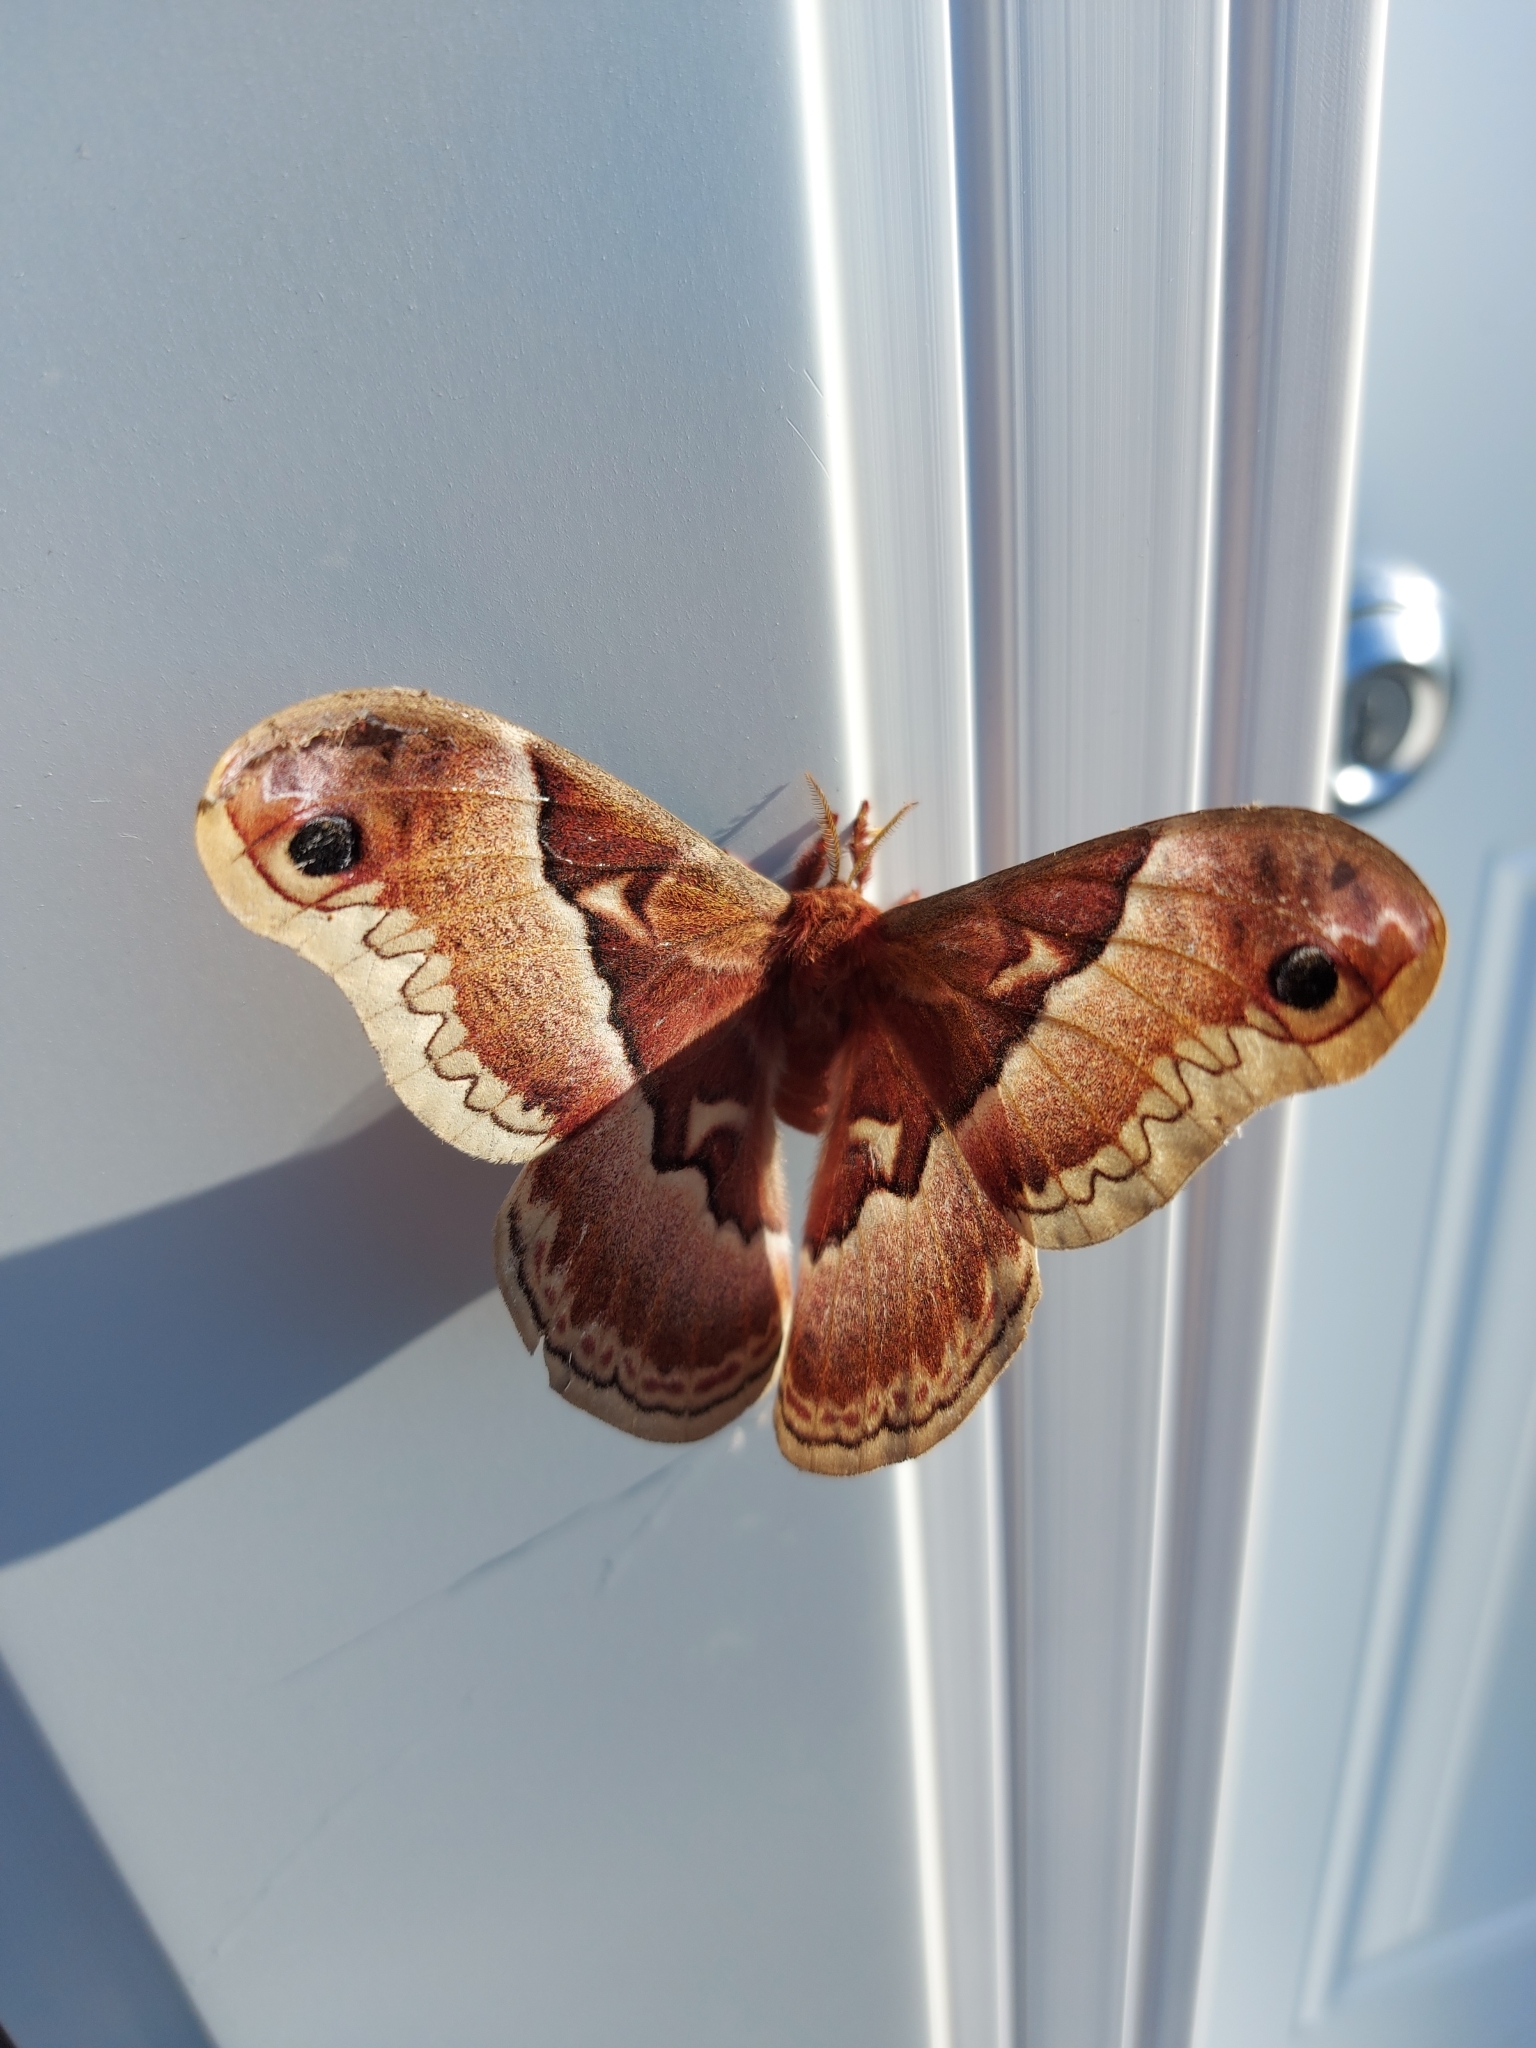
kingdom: Animalia
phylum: Arthropoda
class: Insecta
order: Lepidoptera
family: Saturniidae
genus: Callosamia
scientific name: Callosamia promethea
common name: Promethea silkmoth
